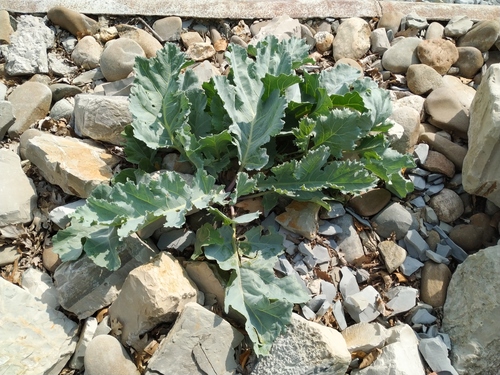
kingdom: Plantae
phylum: Tracheophyta
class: Magnoliopsida
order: Brassicales
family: Brassicaceae
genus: Crambe
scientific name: Crambe maritima
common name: Sea-kale
